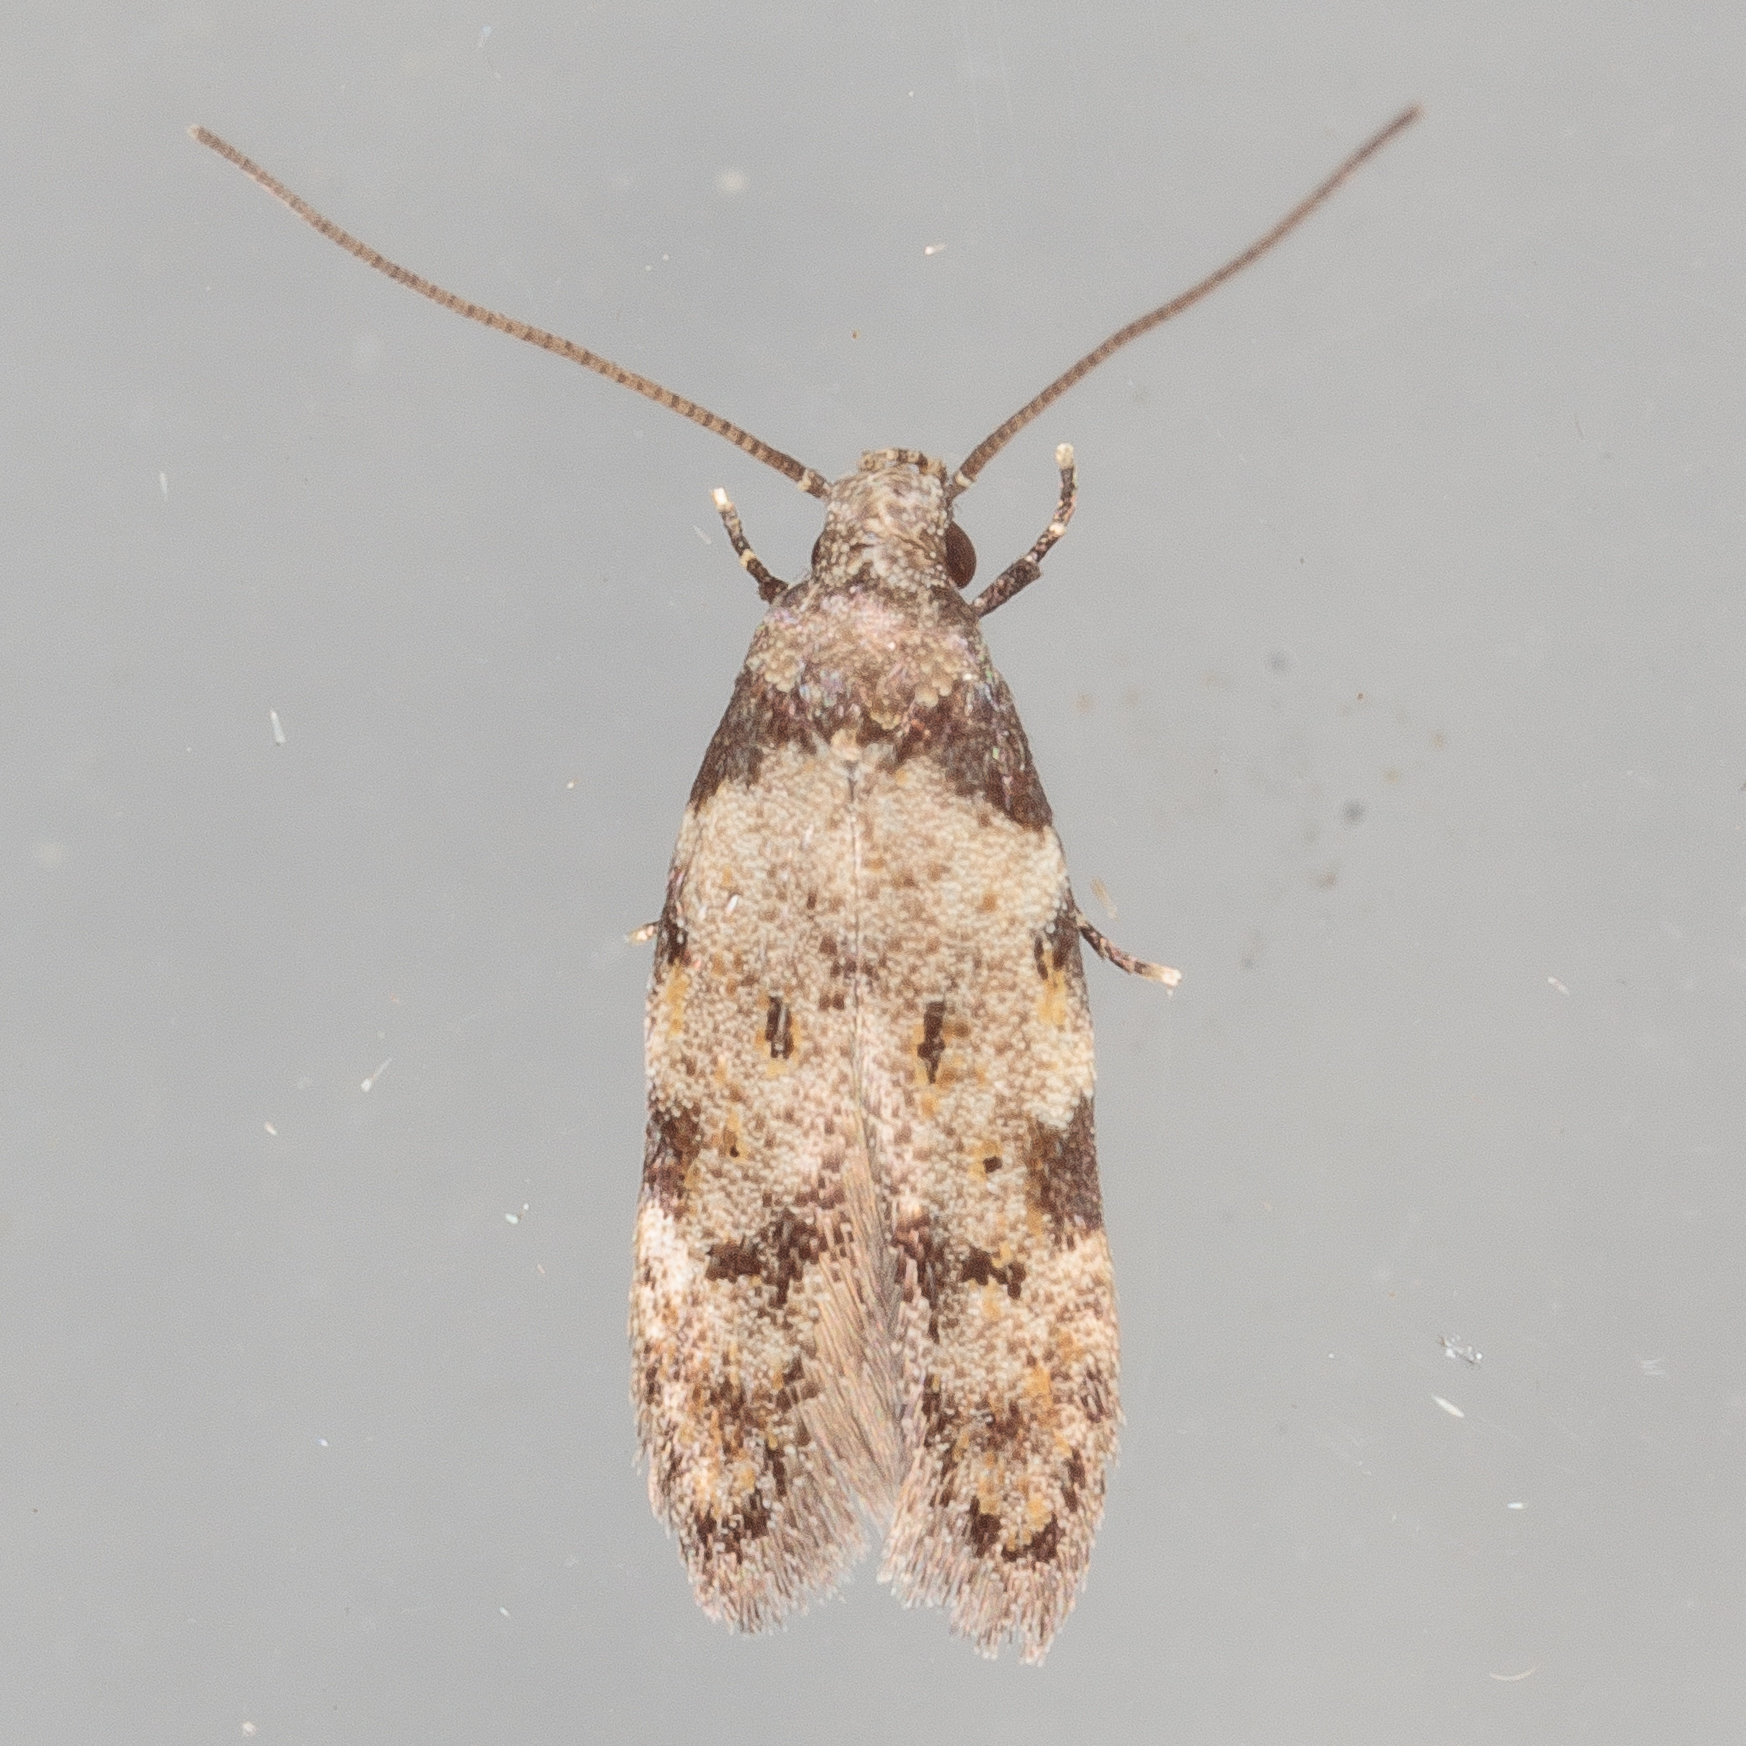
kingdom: Animalia
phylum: Arthropoda
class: Insecta
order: Lepidoptera
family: Autostichidae
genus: Taygete
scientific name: Taygete attributella
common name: Triangle-marked twirler moth
